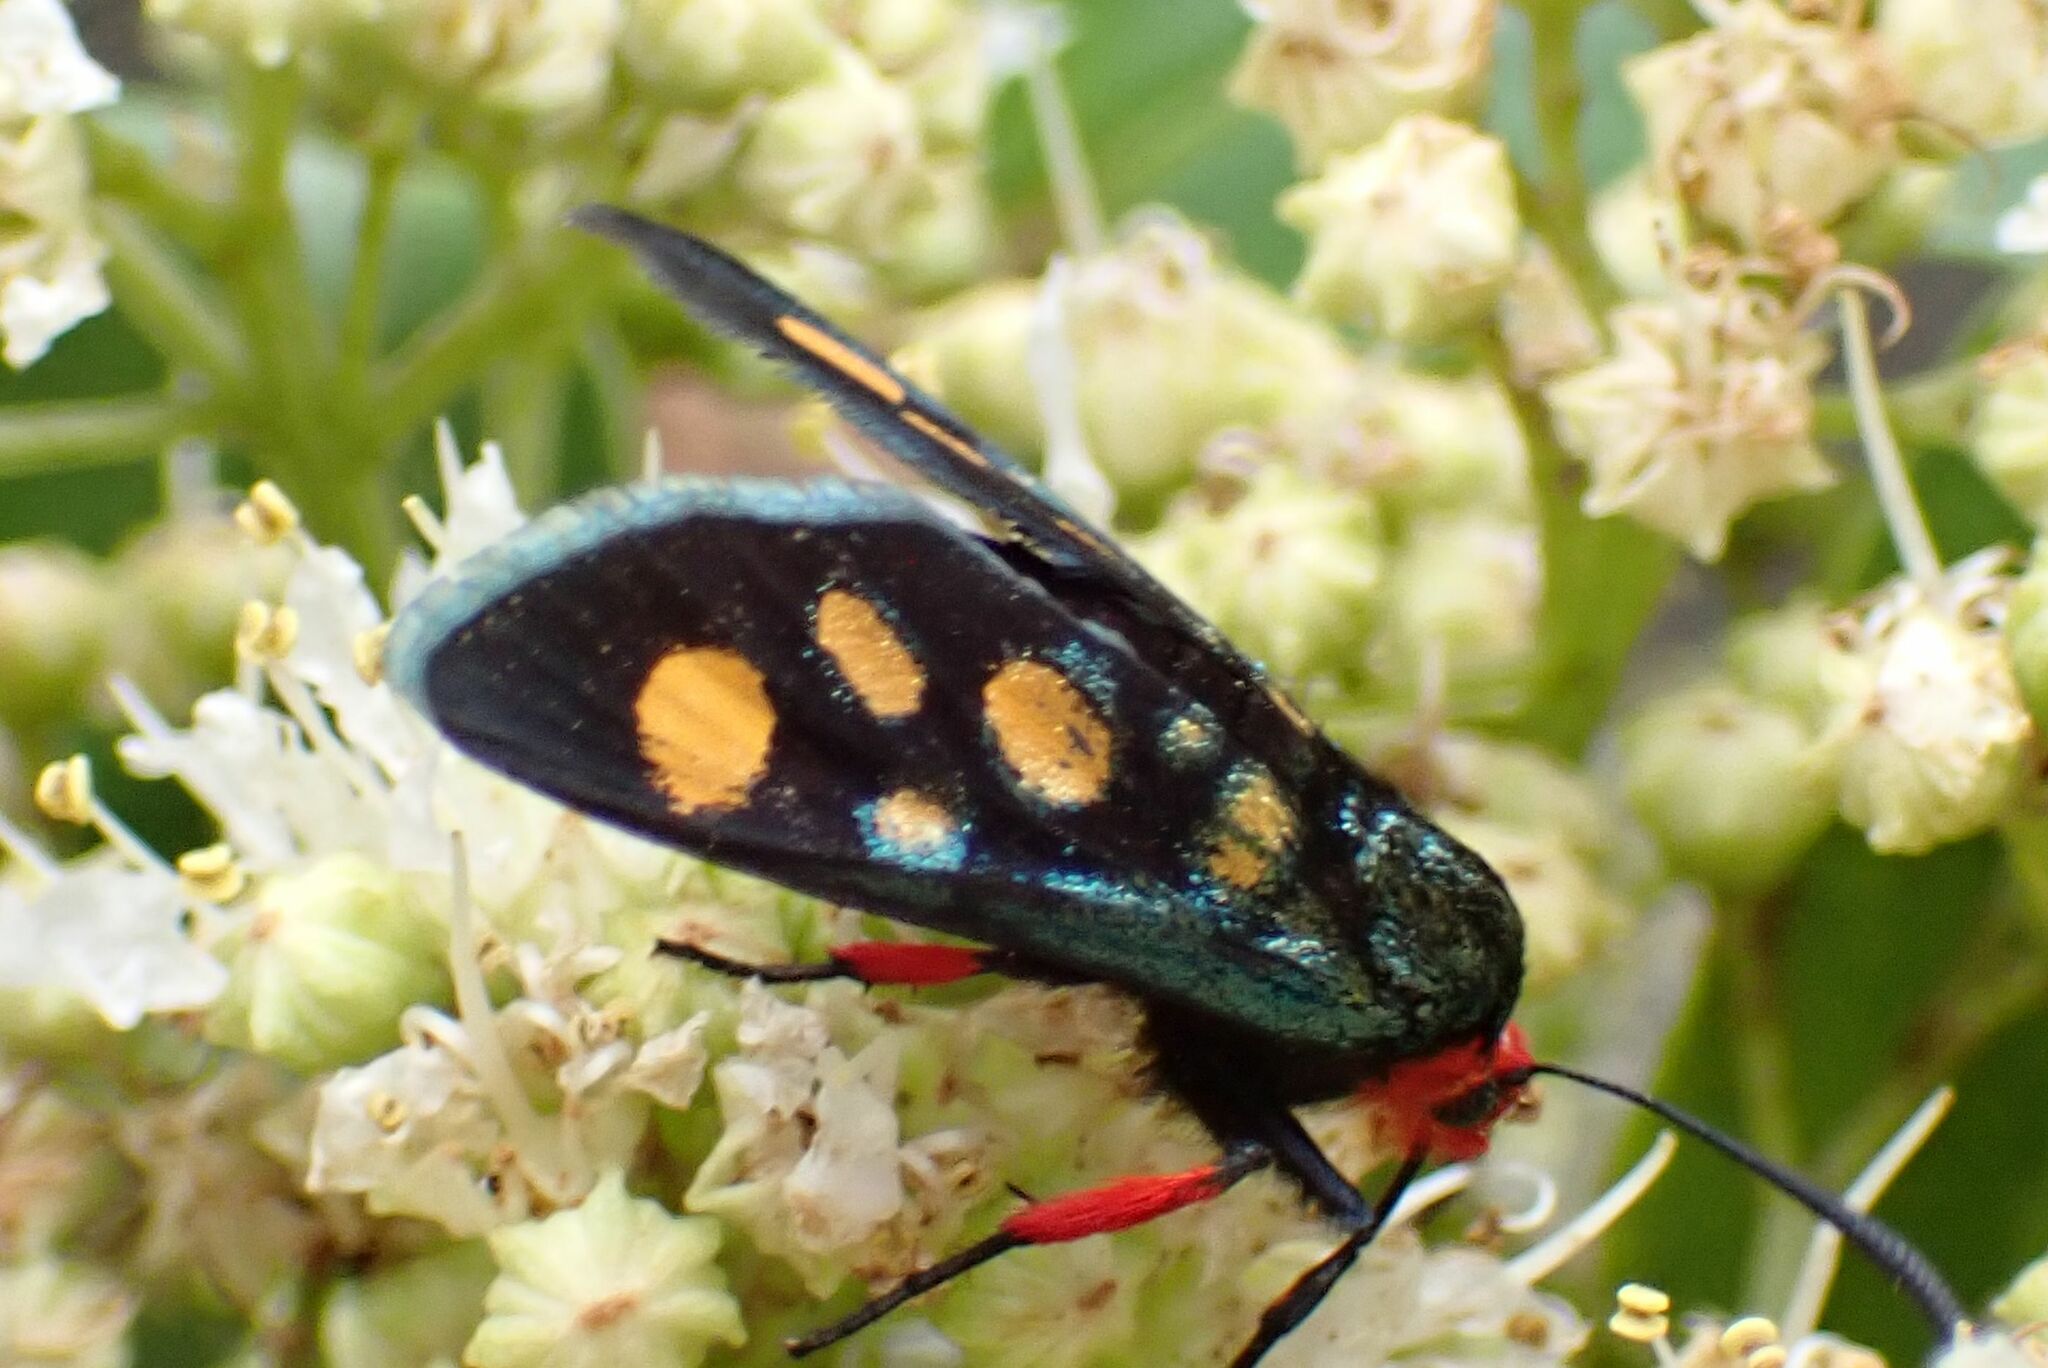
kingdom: Animalia
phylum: Arthropoda
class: Insecta
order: Lepidoptera
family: Thyrididae
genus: Arniocera
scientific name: Arniocera auriguttata
